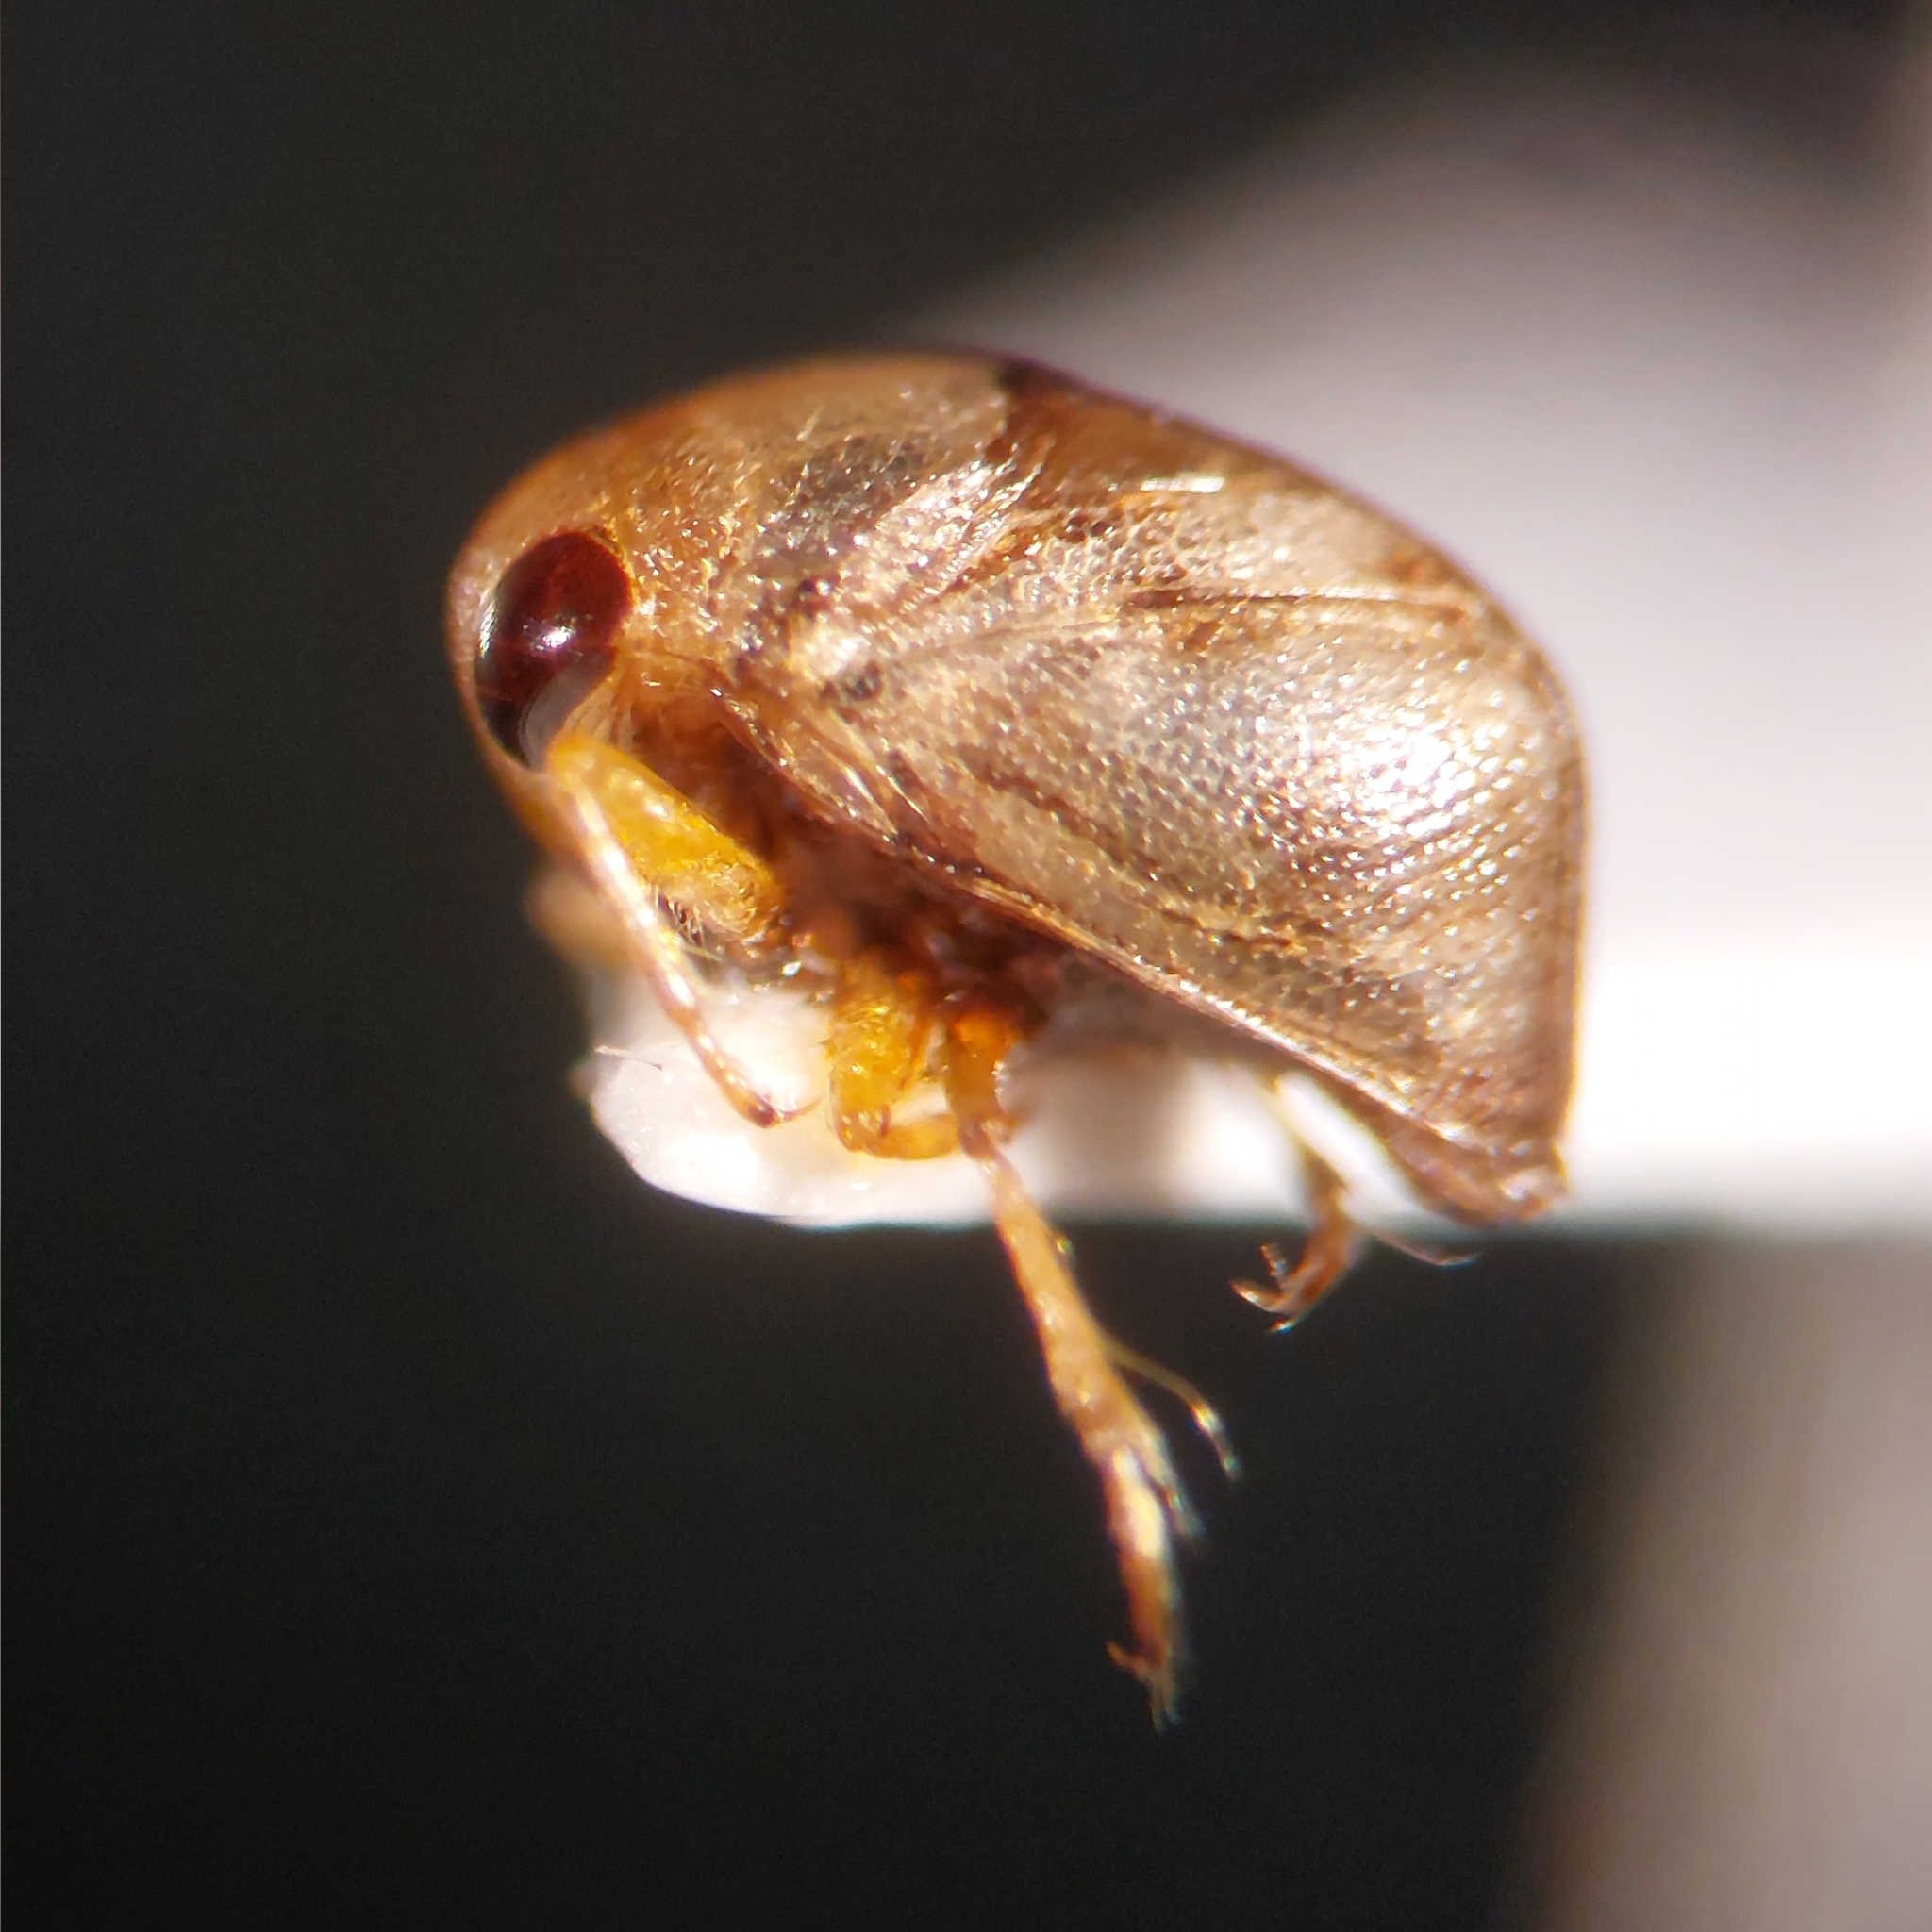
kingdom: Animalia
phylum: Arthropoda
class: Insecta
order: Hemiptera
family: Pleidae
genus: Plea
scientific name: Plea minutissima
